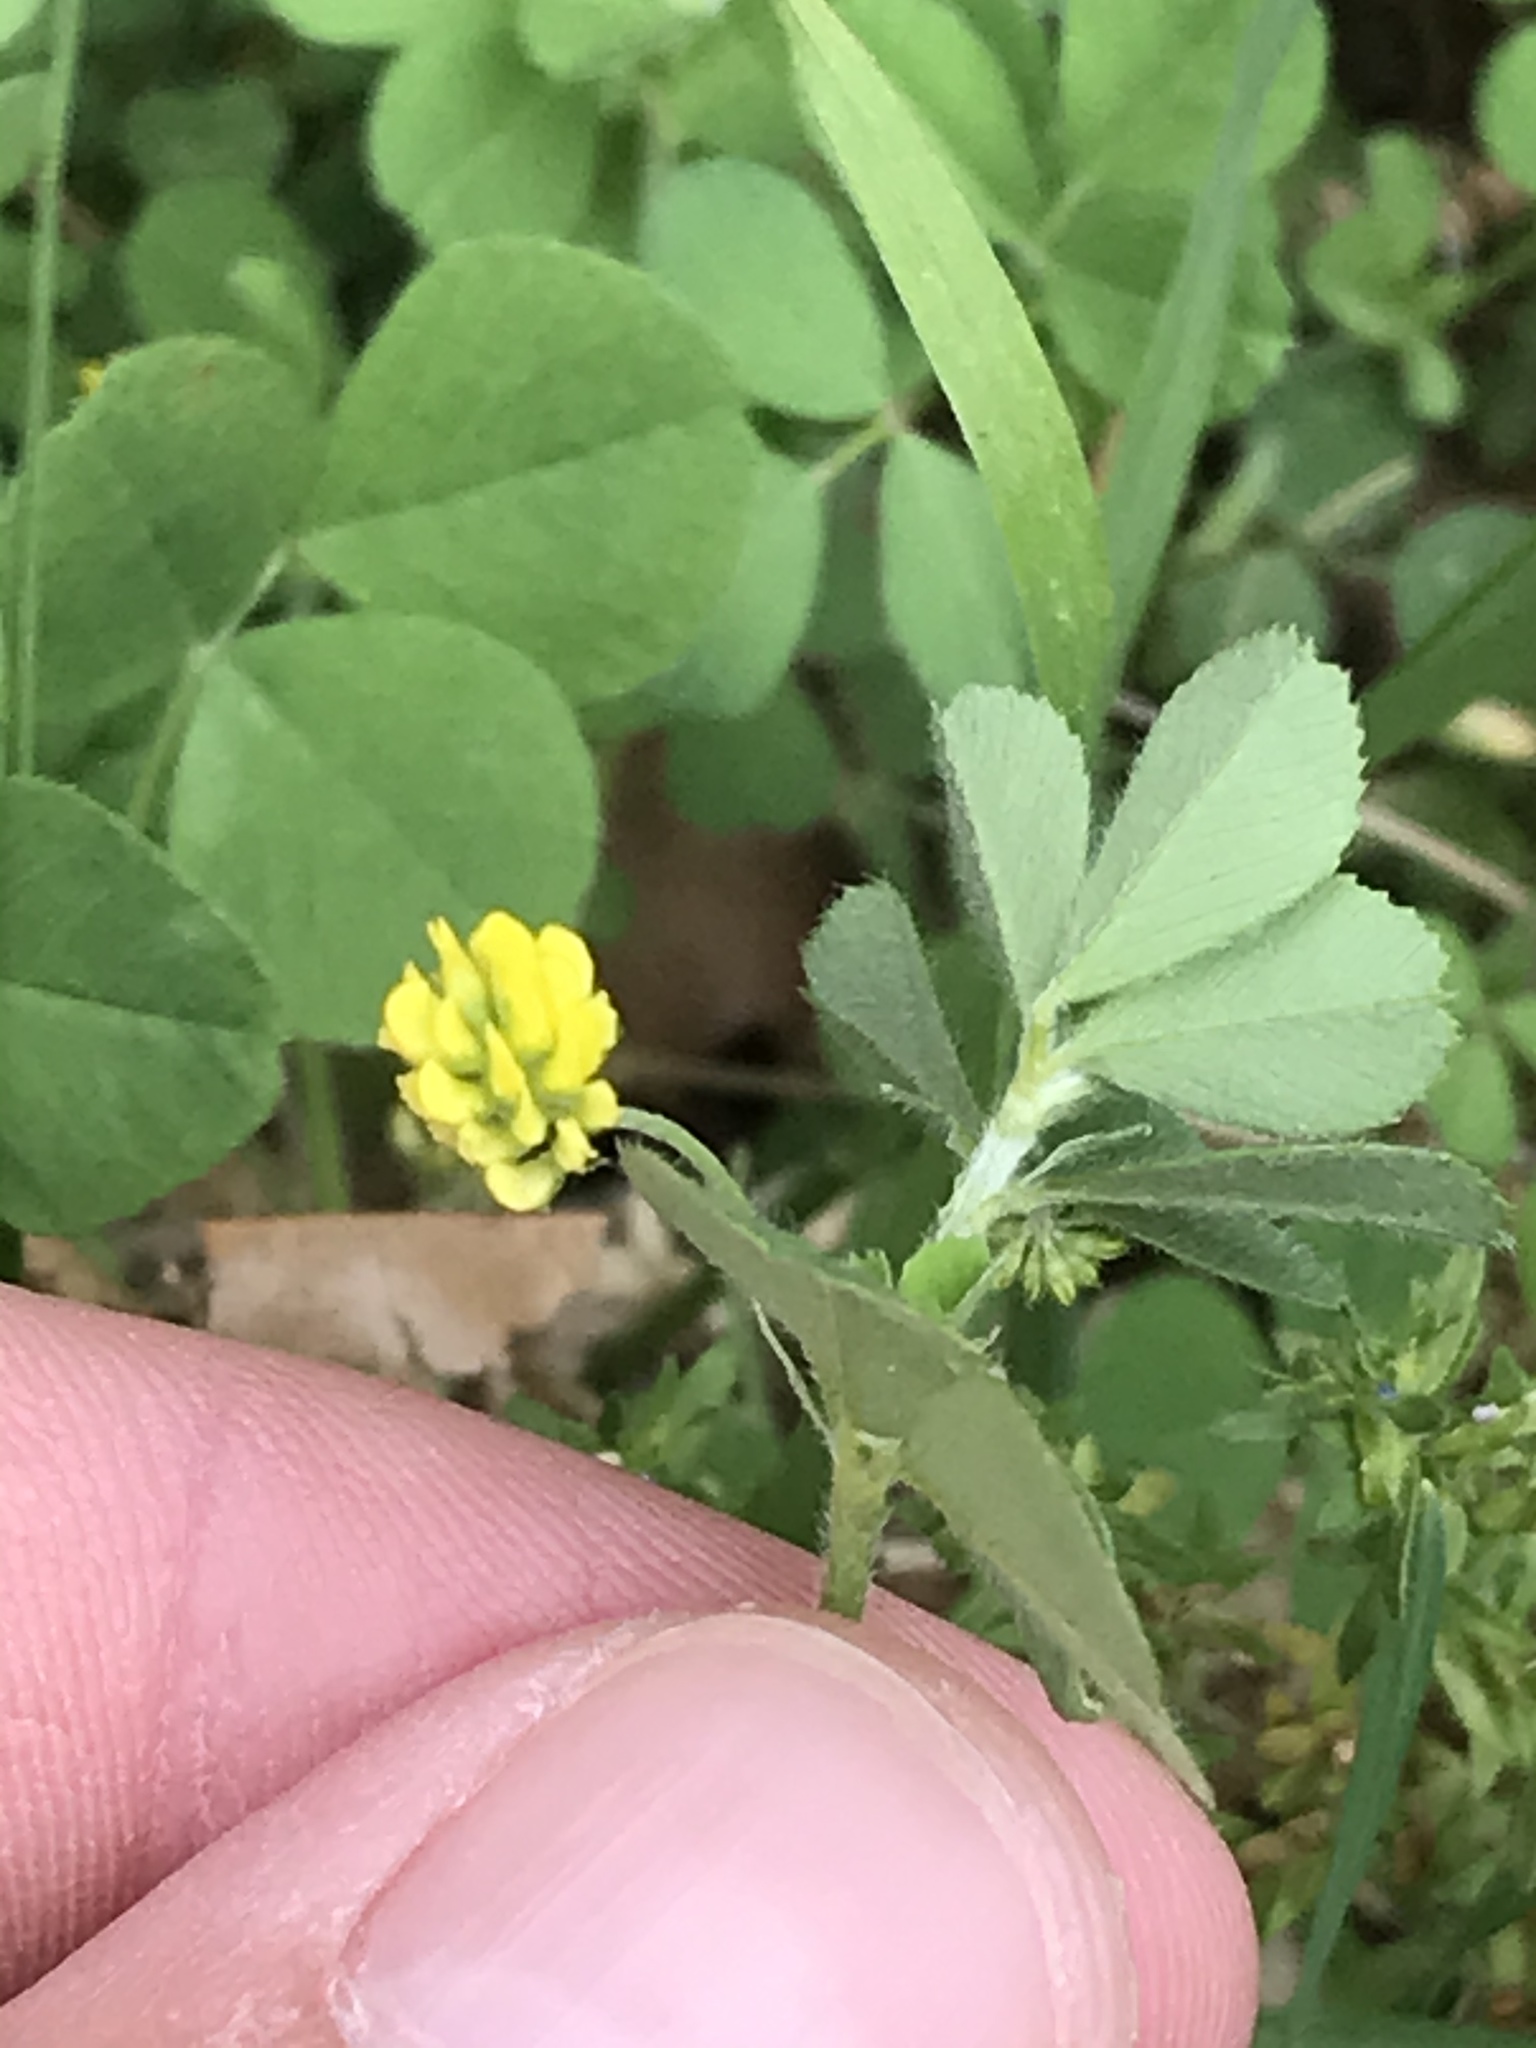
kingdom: Plantae
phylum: Tracheophyta
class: Magnoliopsida
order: Fabales
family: Fabaceae
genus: Medicago
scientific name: Medicago lupulina
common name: Black medick
